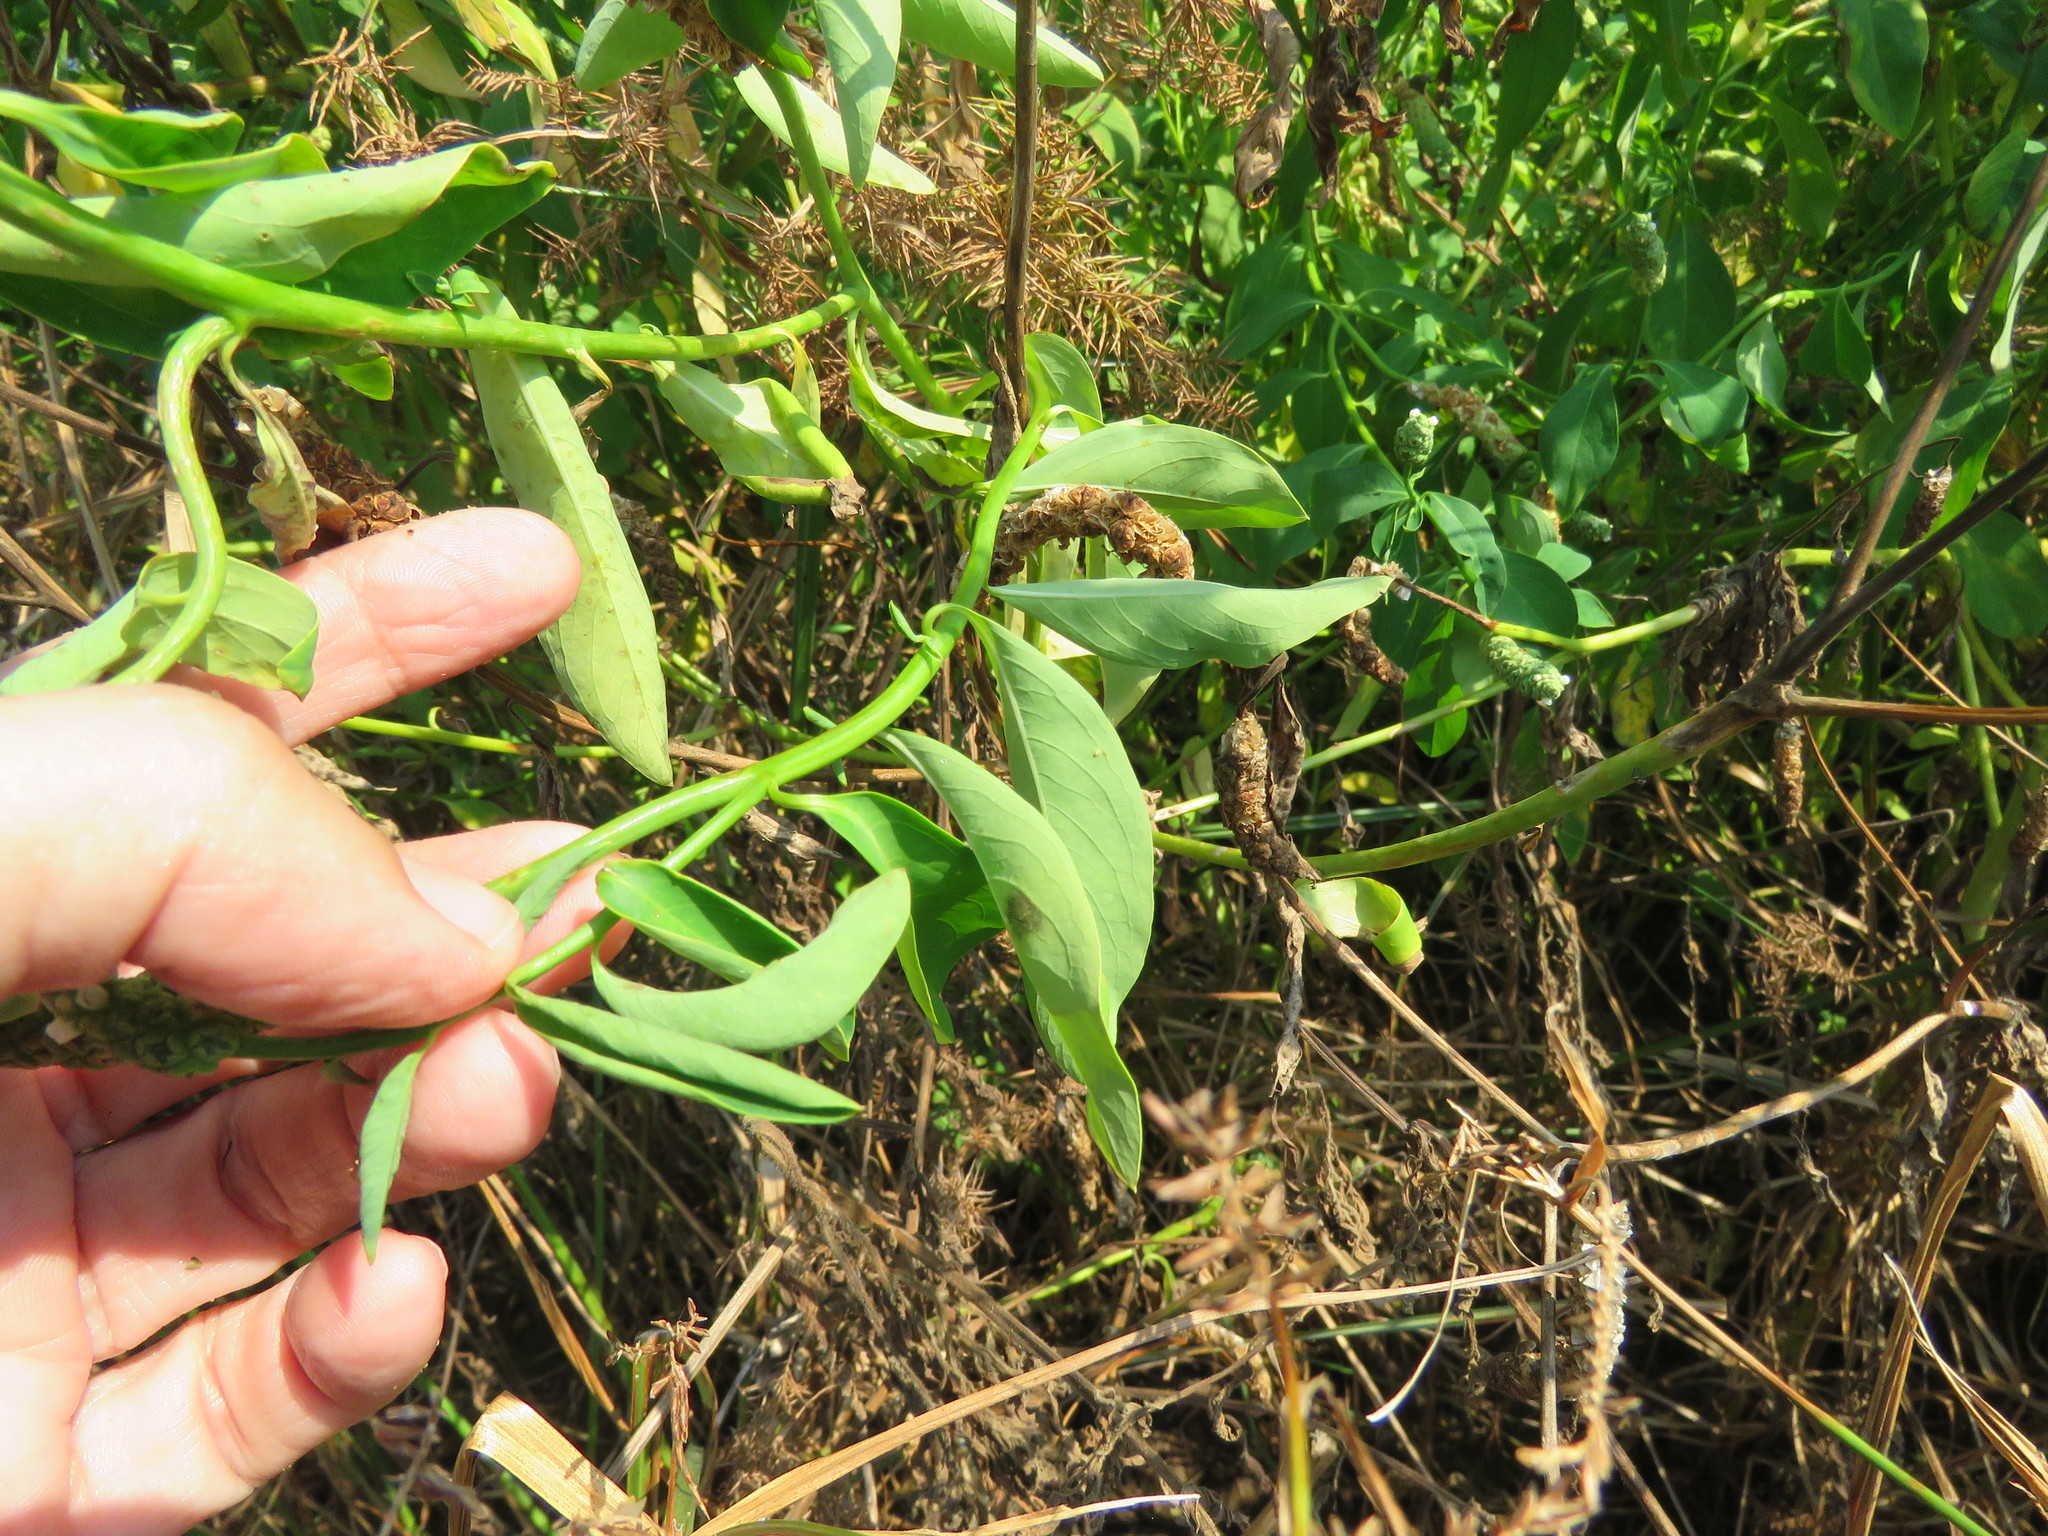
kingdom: Plantae
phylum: Tracheophyta
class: Magnoliopsida
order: Solanales
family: Sphenocleaceae
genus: Sphenoclea
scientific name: Sphenoclea zeylanica
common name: Chickenspike
